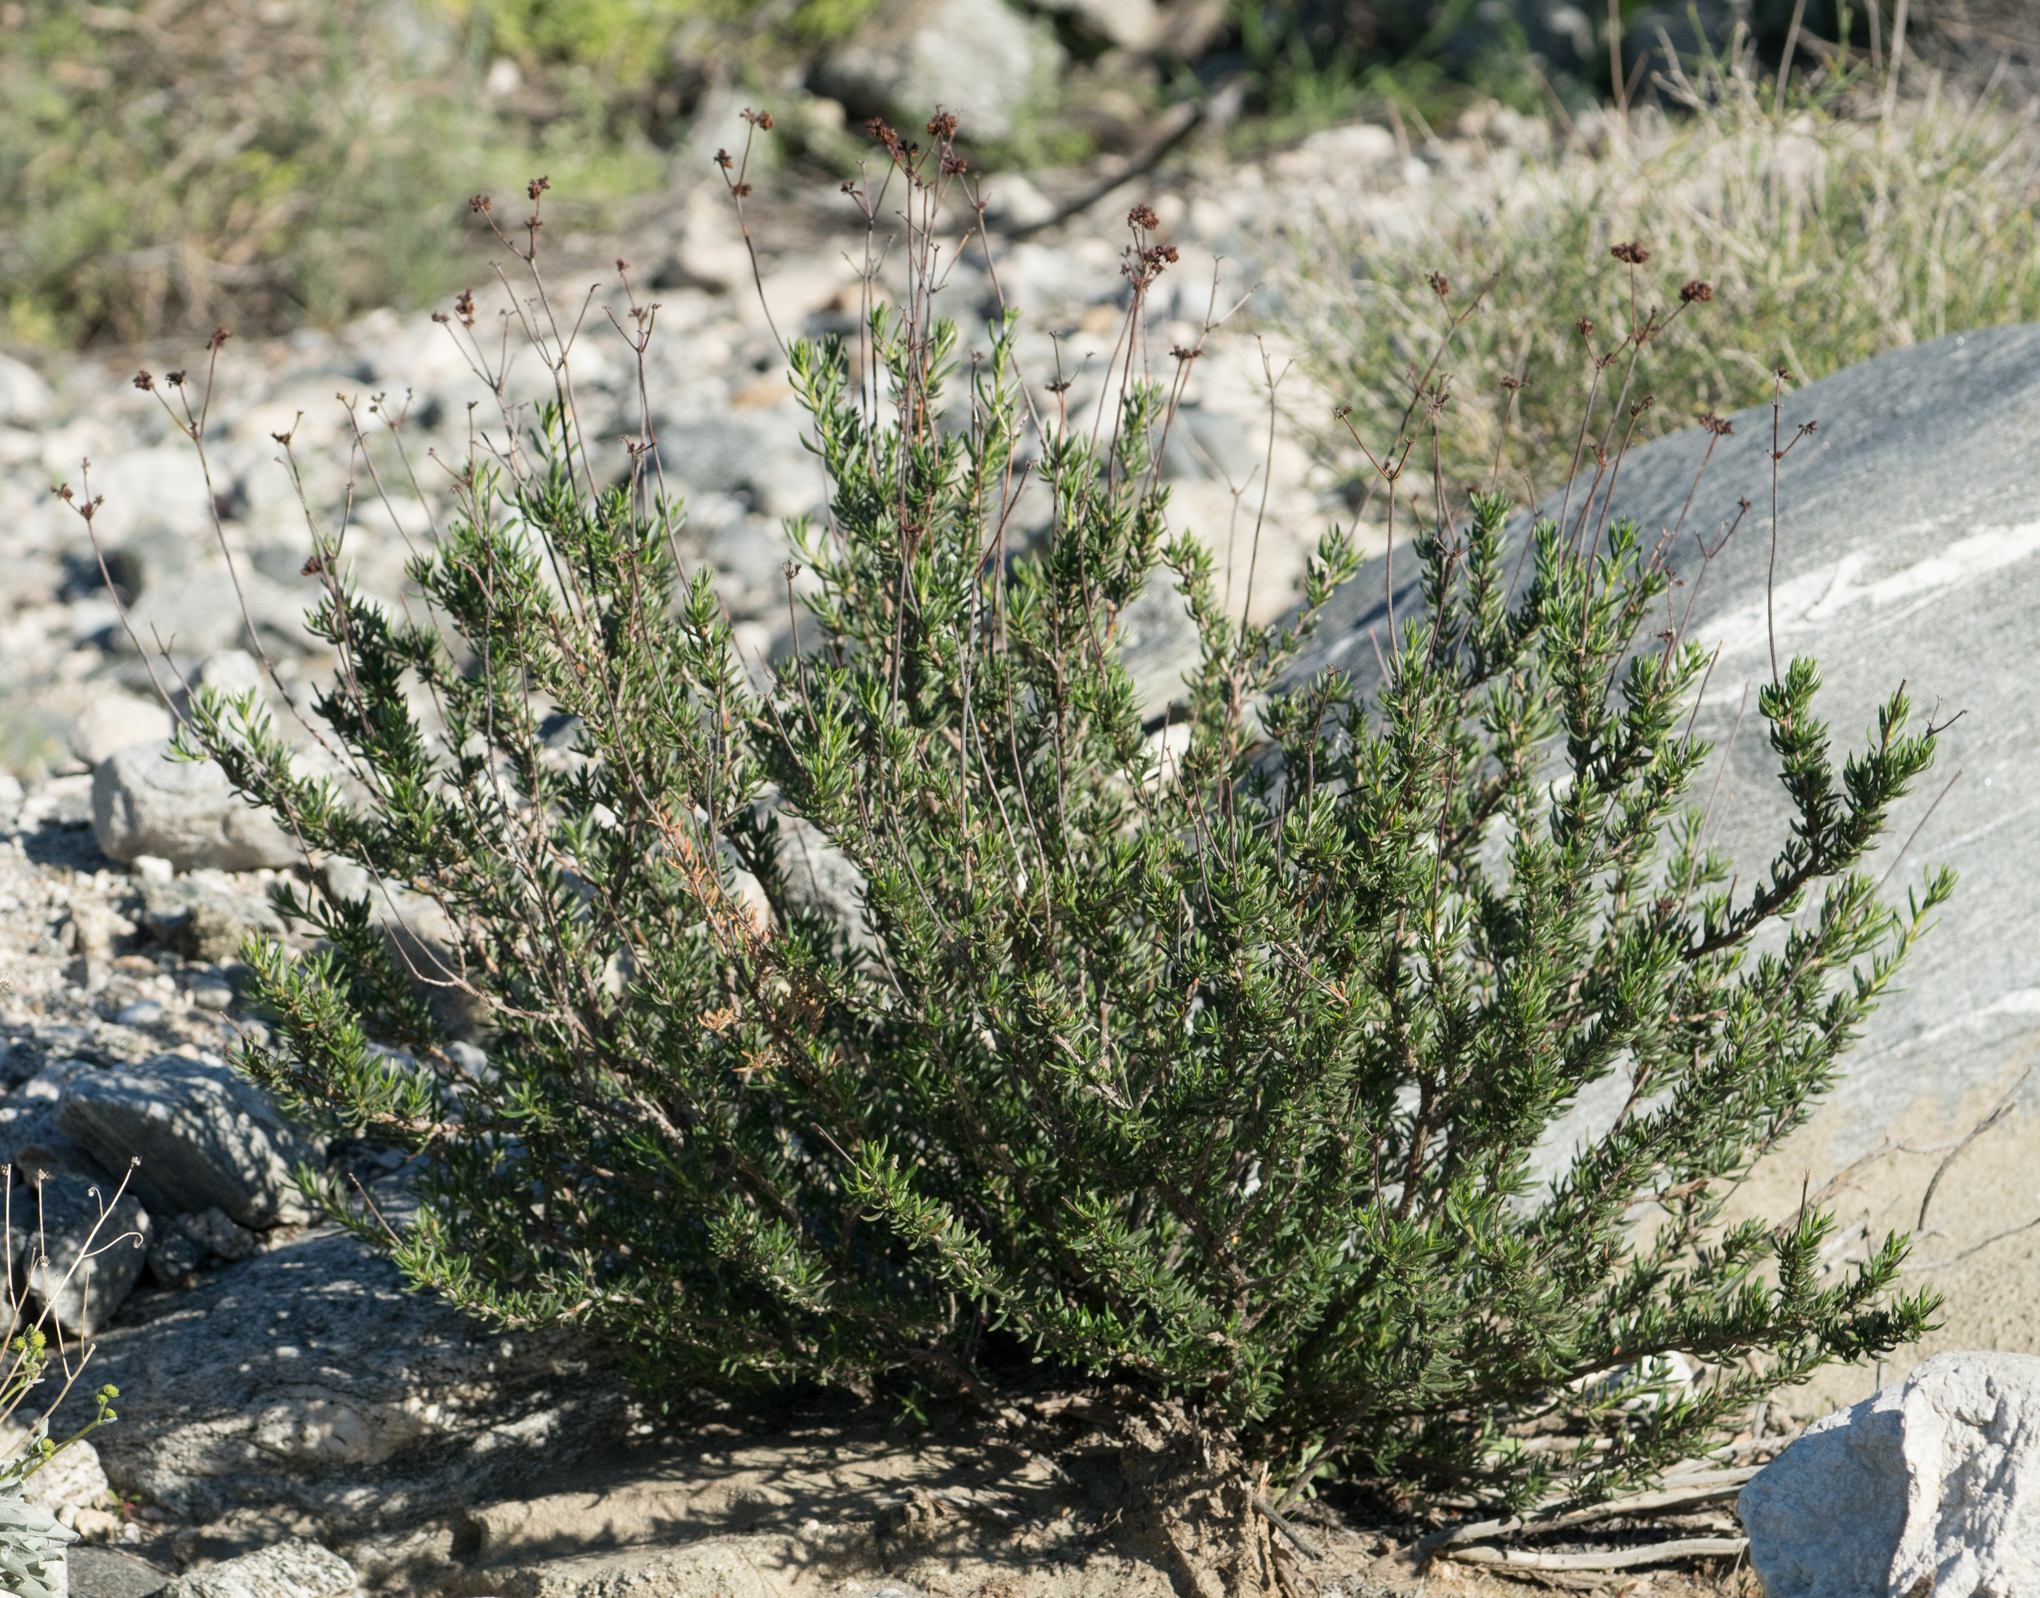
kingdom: Plantae
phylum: Tracheophyta
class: Magnoliopsida
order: Caryophyllales
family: Polygonaceae
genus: Eriogonum
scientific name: Eriogonum fasciculatum
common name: California wild buckwheat
